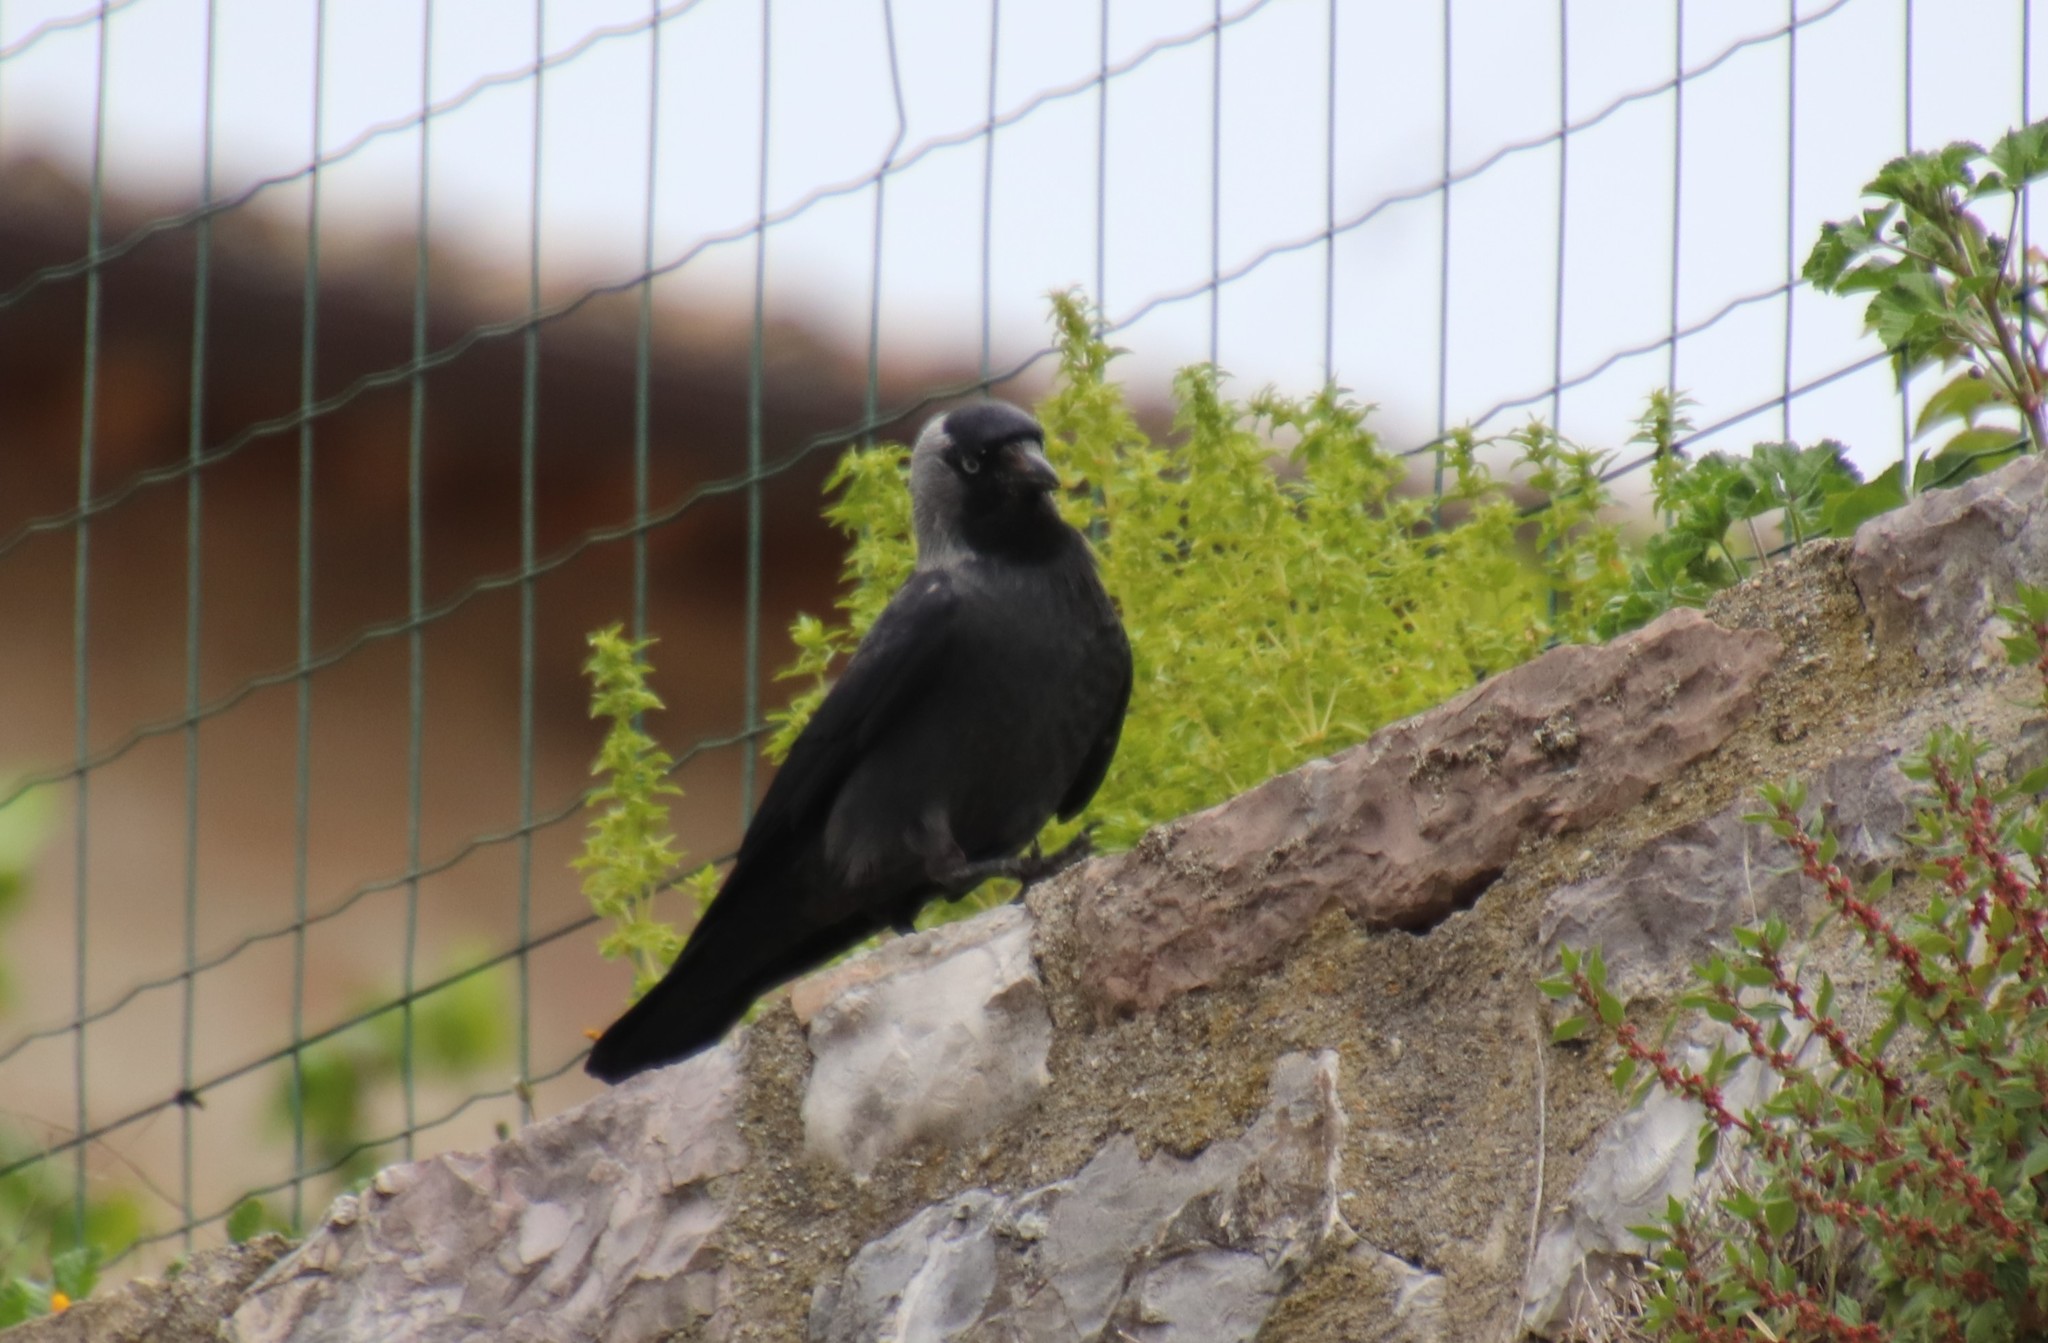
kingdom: Animalia
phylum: Chordata
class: Aves
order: Passeriformes
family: Corvidae
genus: Coloeus
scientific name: Coloeus monedula
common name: Western jackdaw
